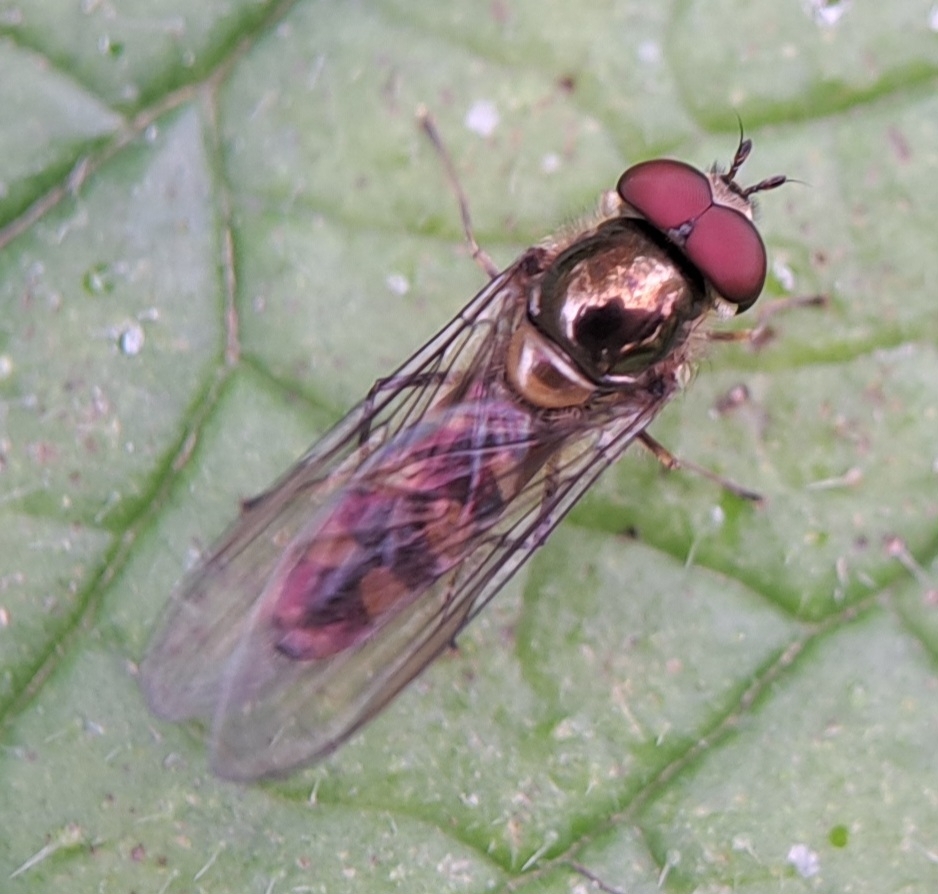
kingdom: Animalia
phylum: Arthropoda
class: Insecta
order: Diptera
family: Syrphidae
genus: Meliscaeva
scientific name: Meliscaeva auricollis
